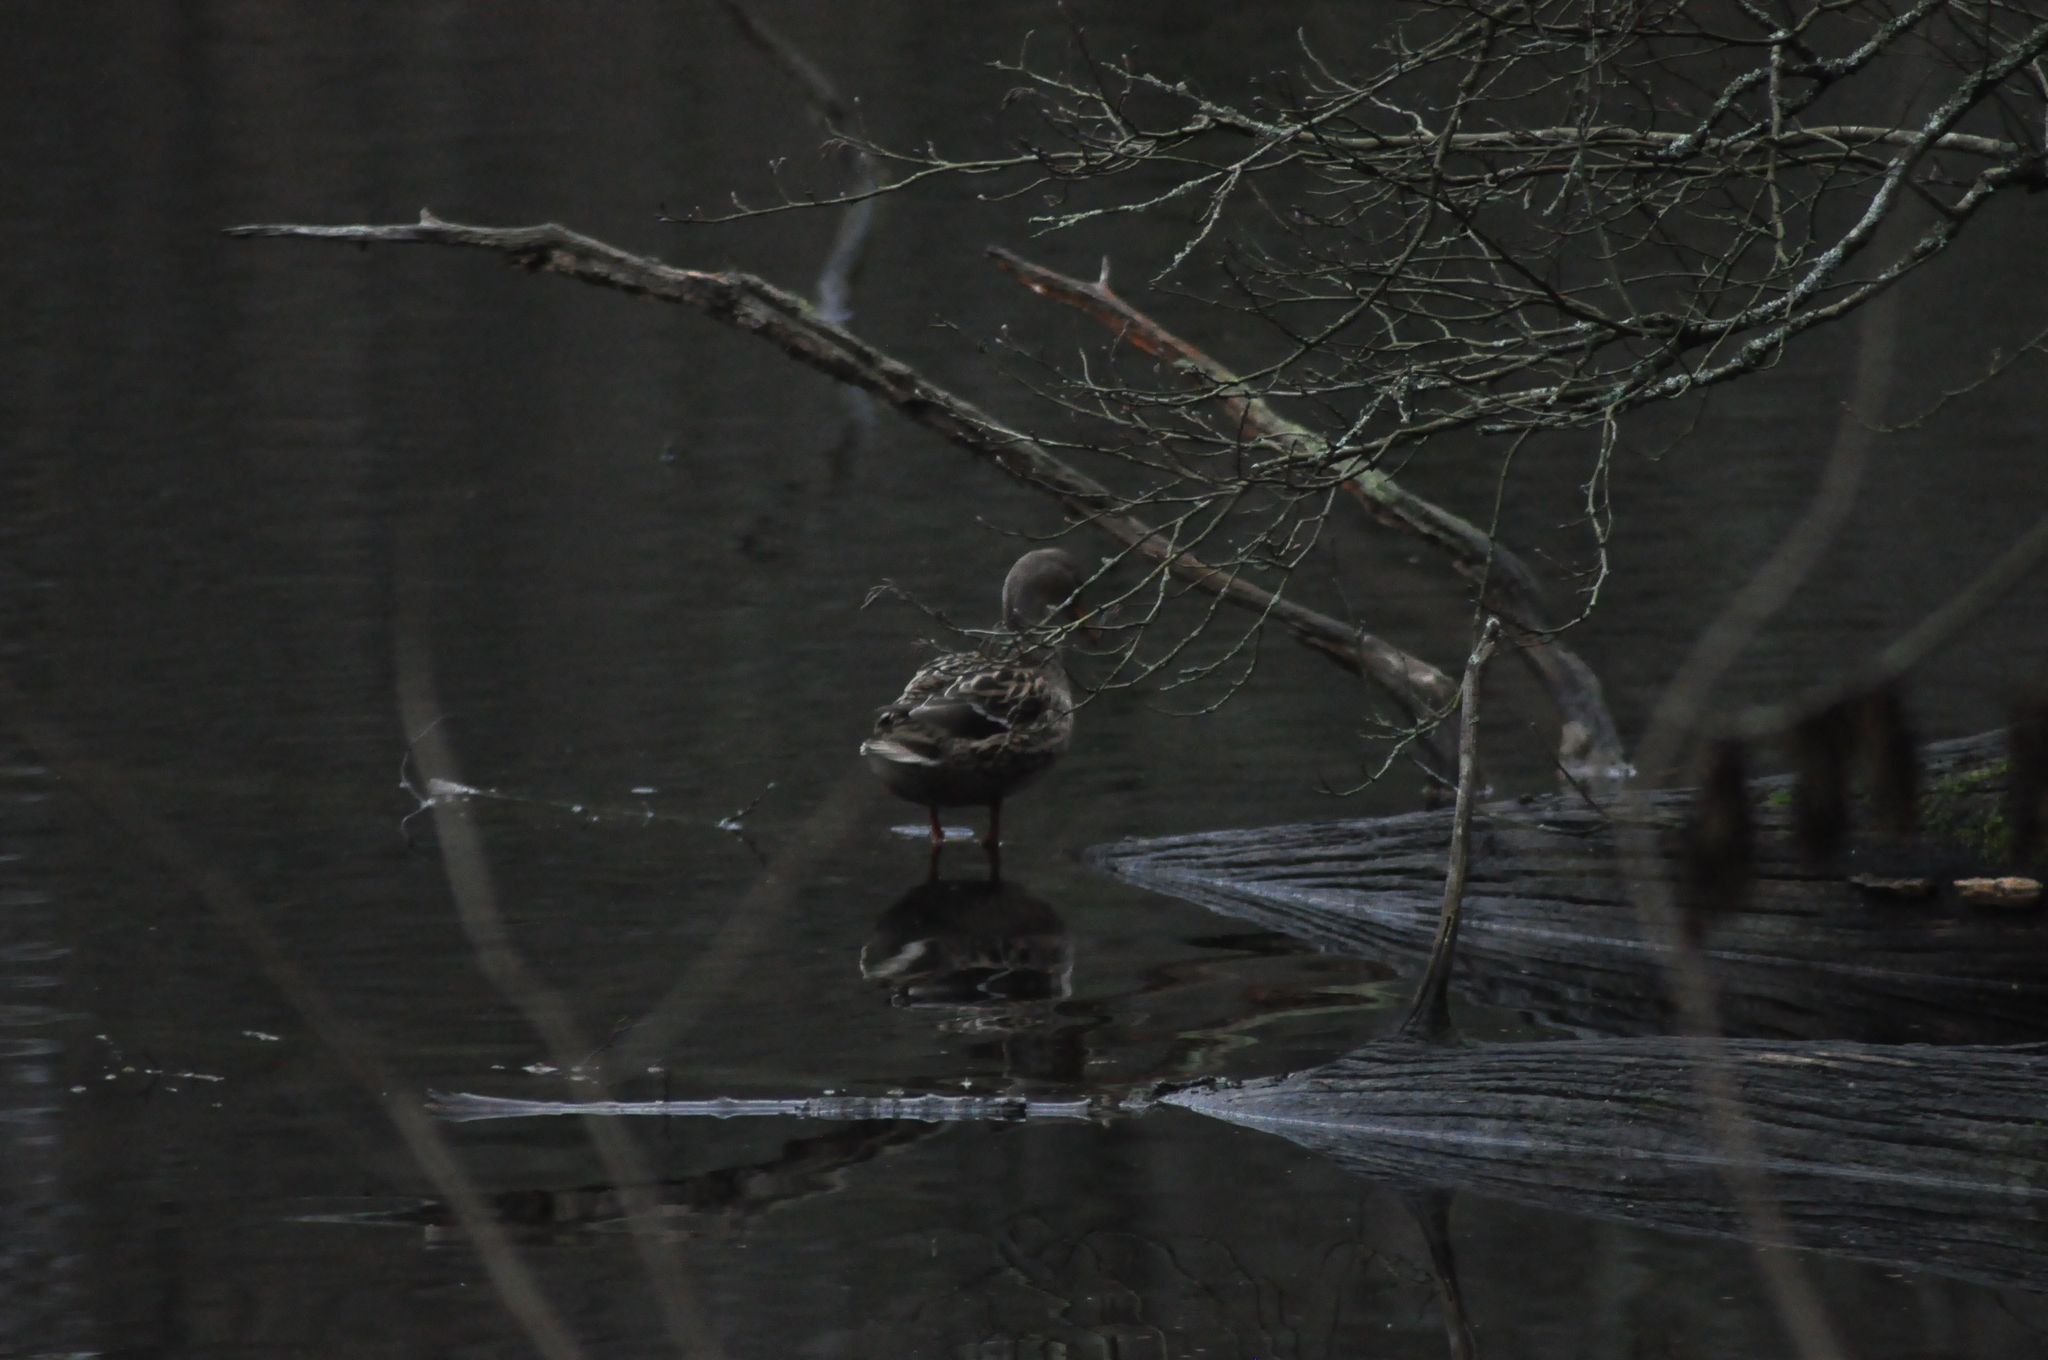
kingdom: Animalia
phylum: Chordata
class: Aves
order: Anseriformes
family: Anatidae
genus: Anas
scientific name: Anas platyrhynchos
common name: Mallard
